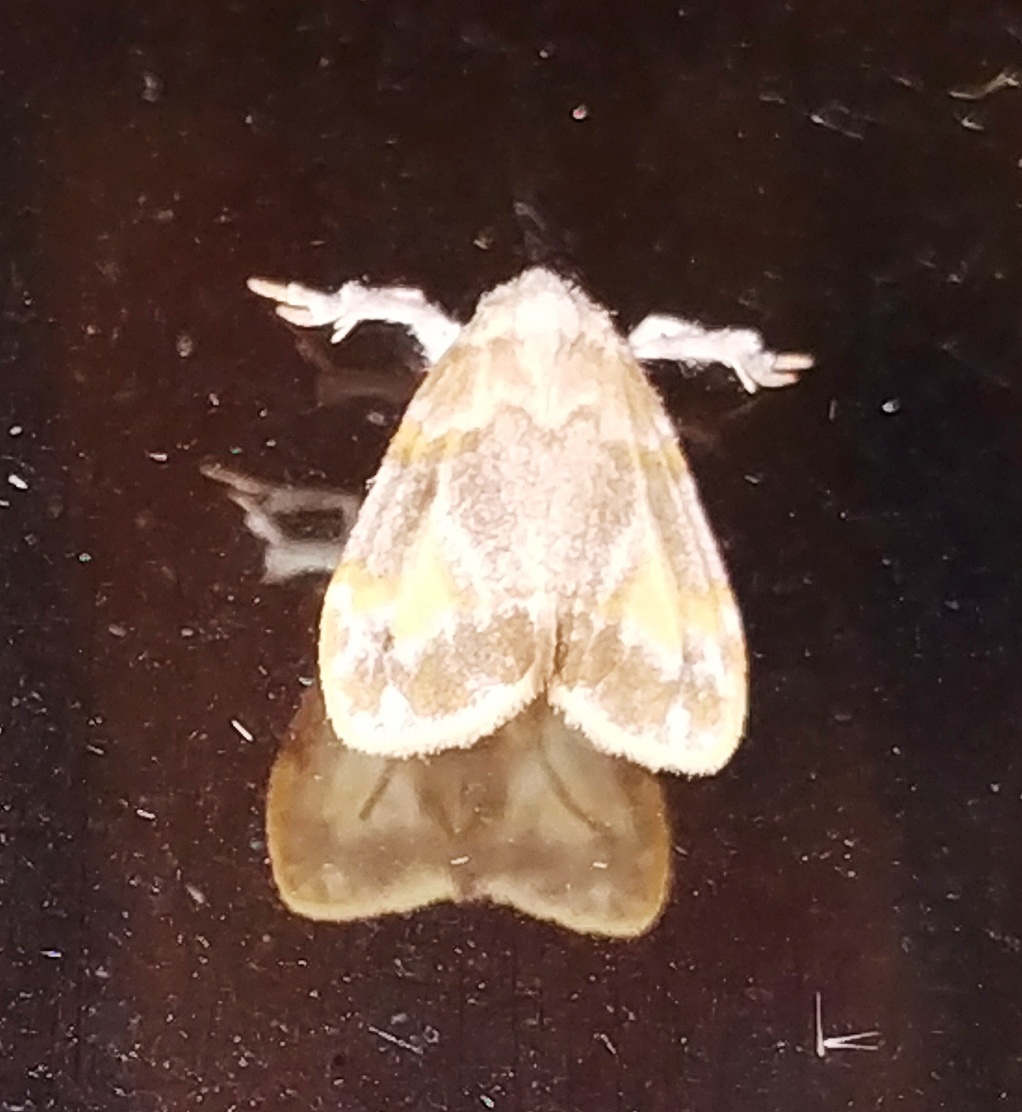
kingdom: Animalia
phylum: Arthropoda
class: Insecta
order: Lepidoptera
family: Erebidae
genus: Nudaria
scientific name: Nudaria diaphanella
